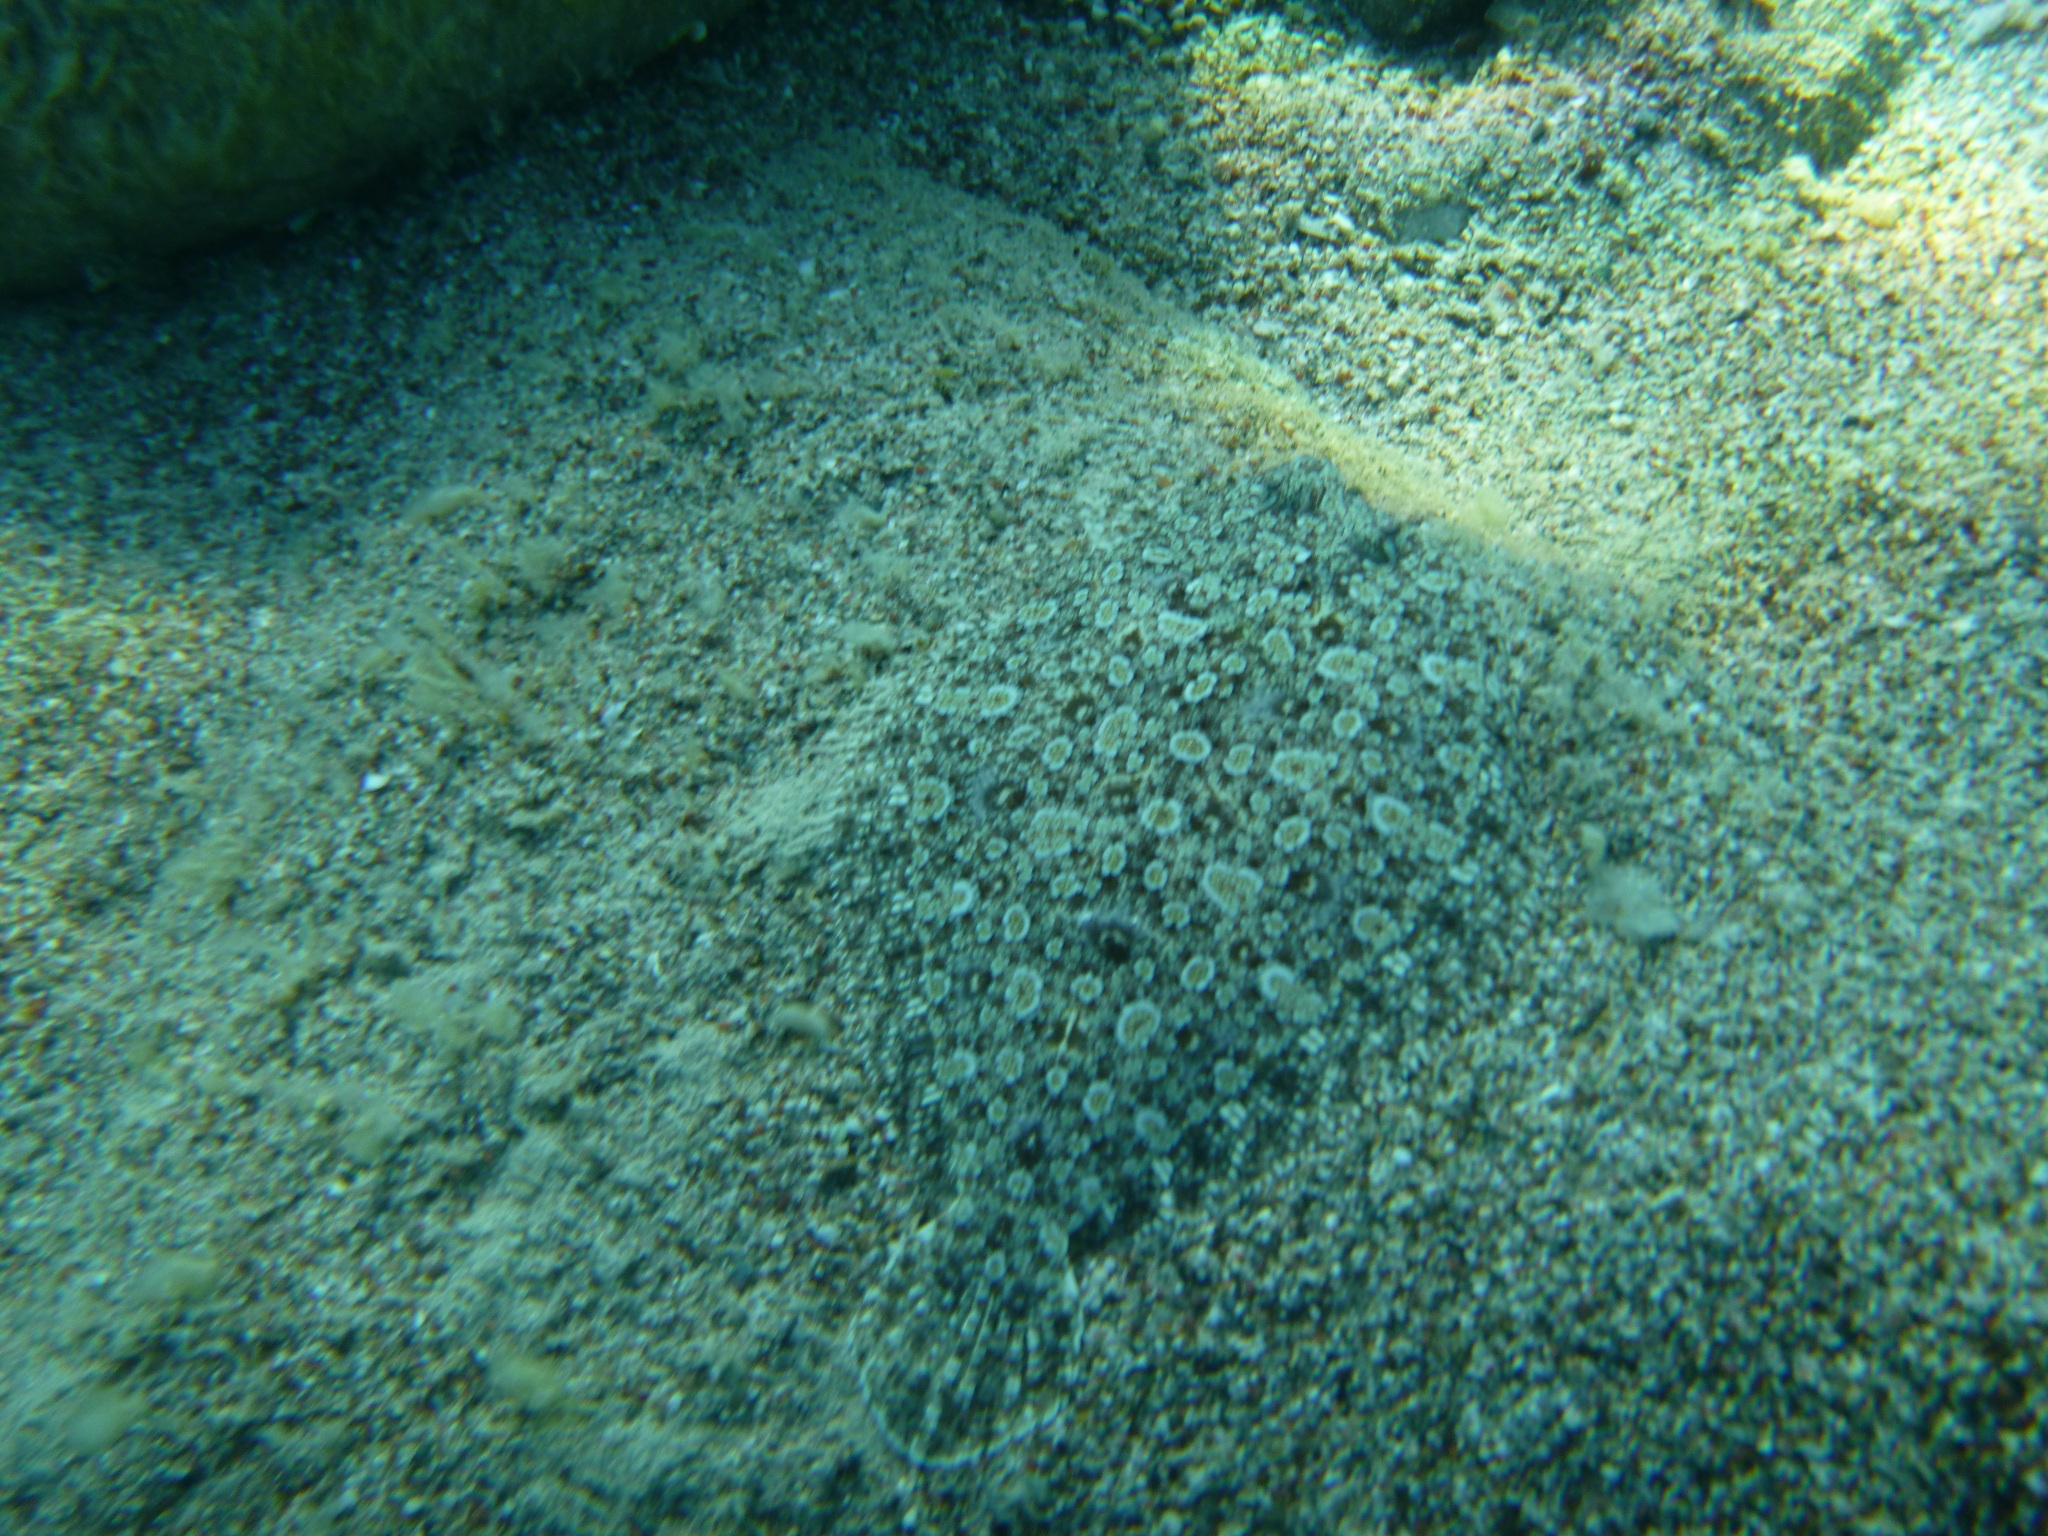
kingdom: Animalia
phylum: Chordata
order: Pleuronectiformes
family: Bothidae
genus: Bothus
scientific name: Bothus podas
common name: Wide-eyed flounder
